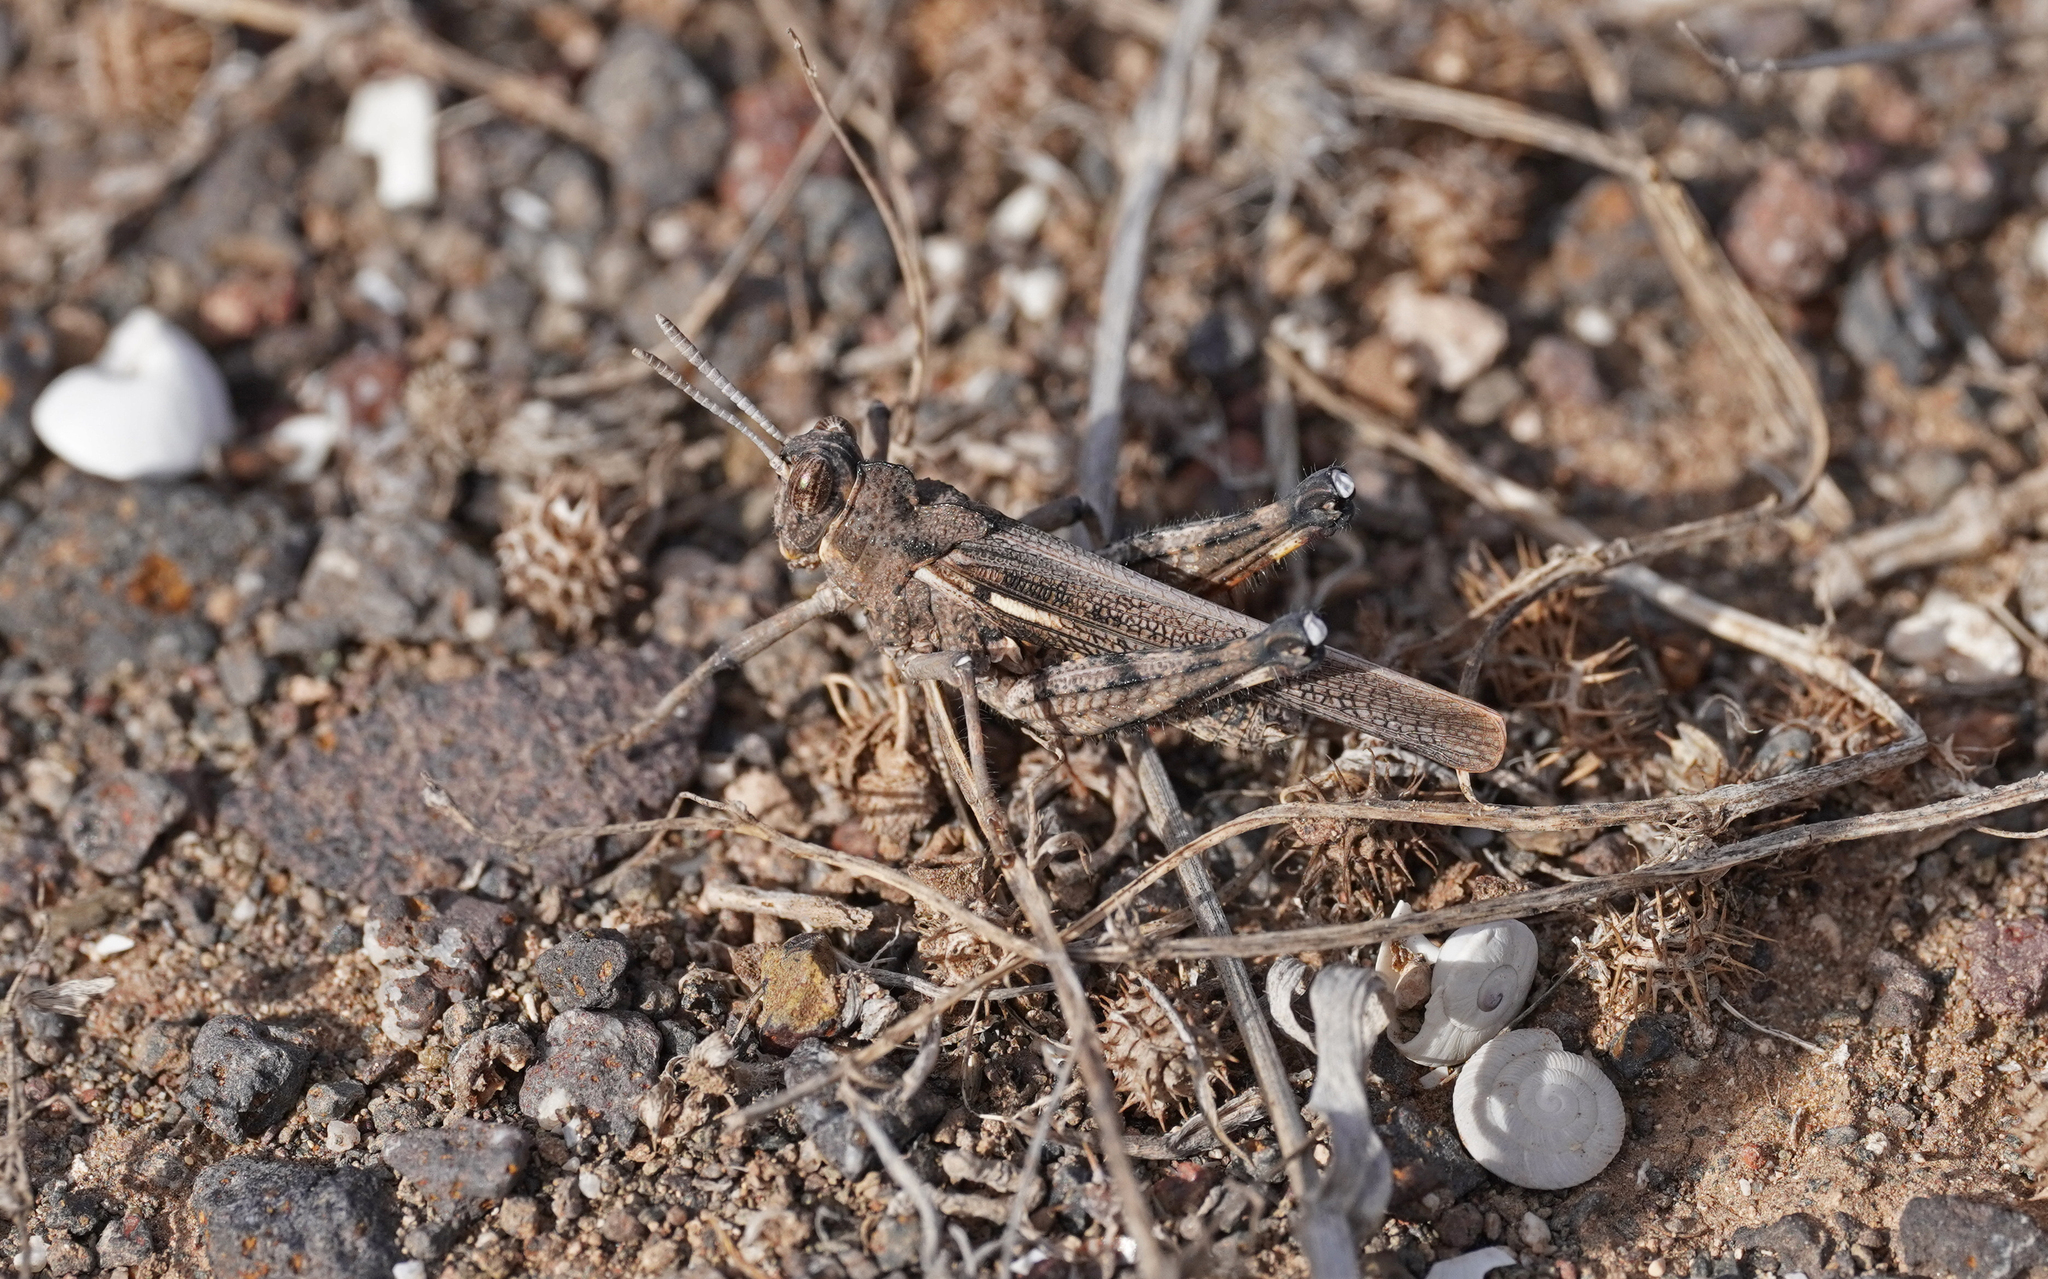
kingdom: Animalia
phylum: Arthropoda
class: Insecta
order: Orthoptera
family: Dericorythidae
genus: Dericorys
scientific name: Dericorys lobata
